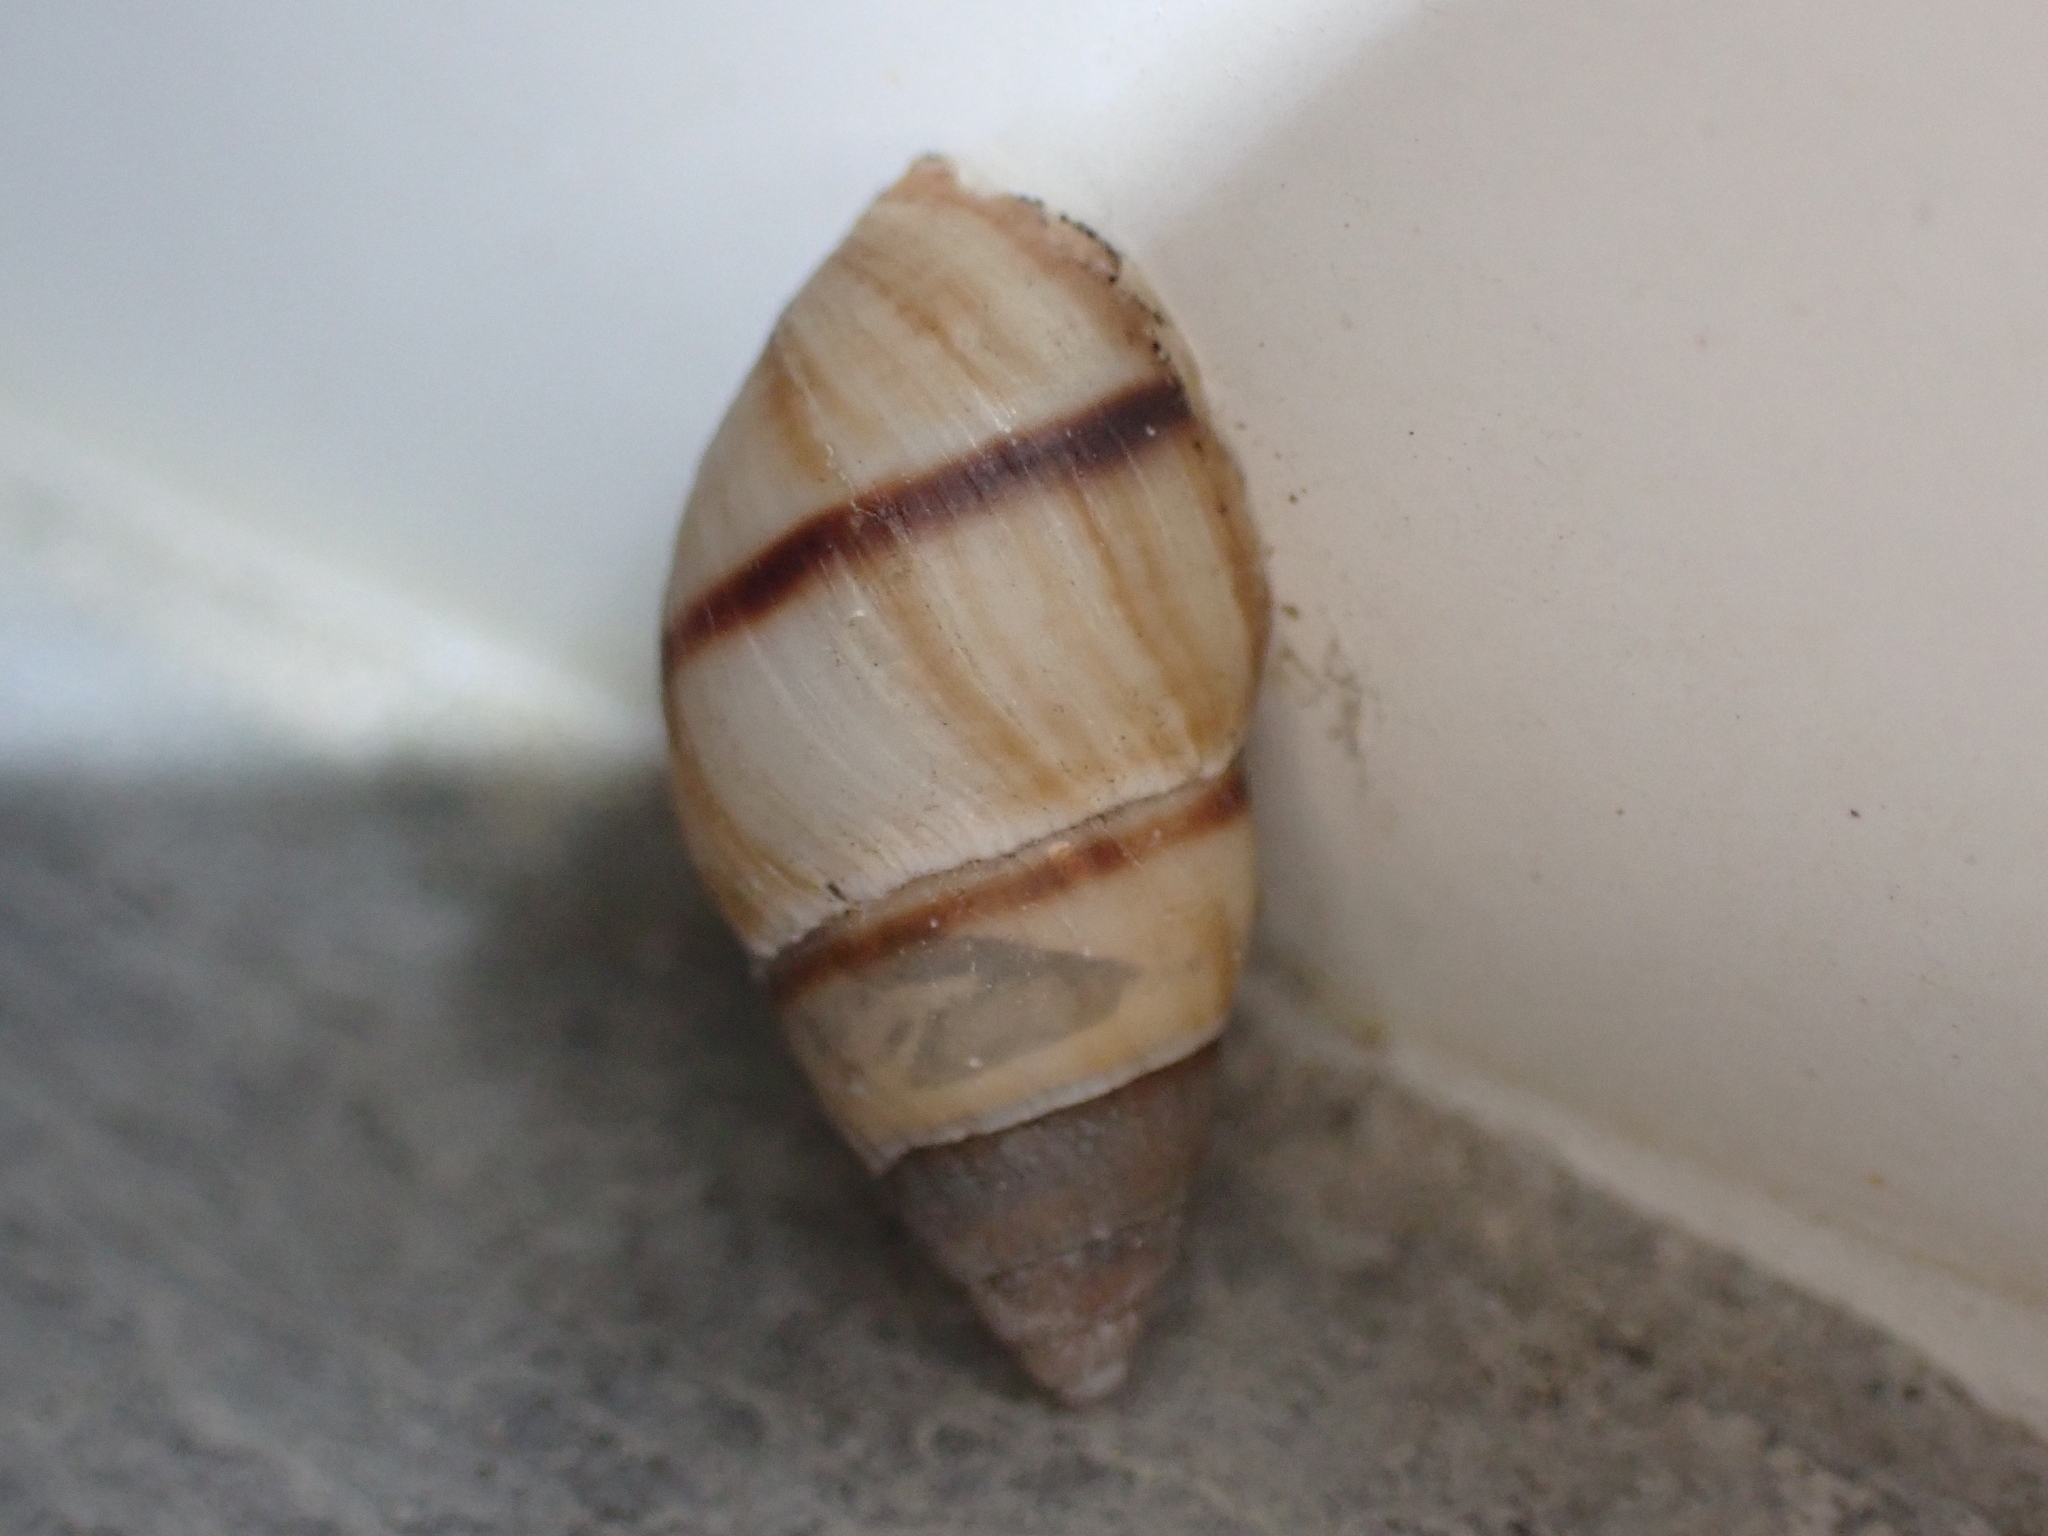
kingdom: Animalia
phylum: Mollusca
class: Gastropoda
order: Stylommatophora
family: Bulimulidae
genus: Bulimulus
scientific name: Bulimulus guadalupensis
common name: West indian bulimulus
